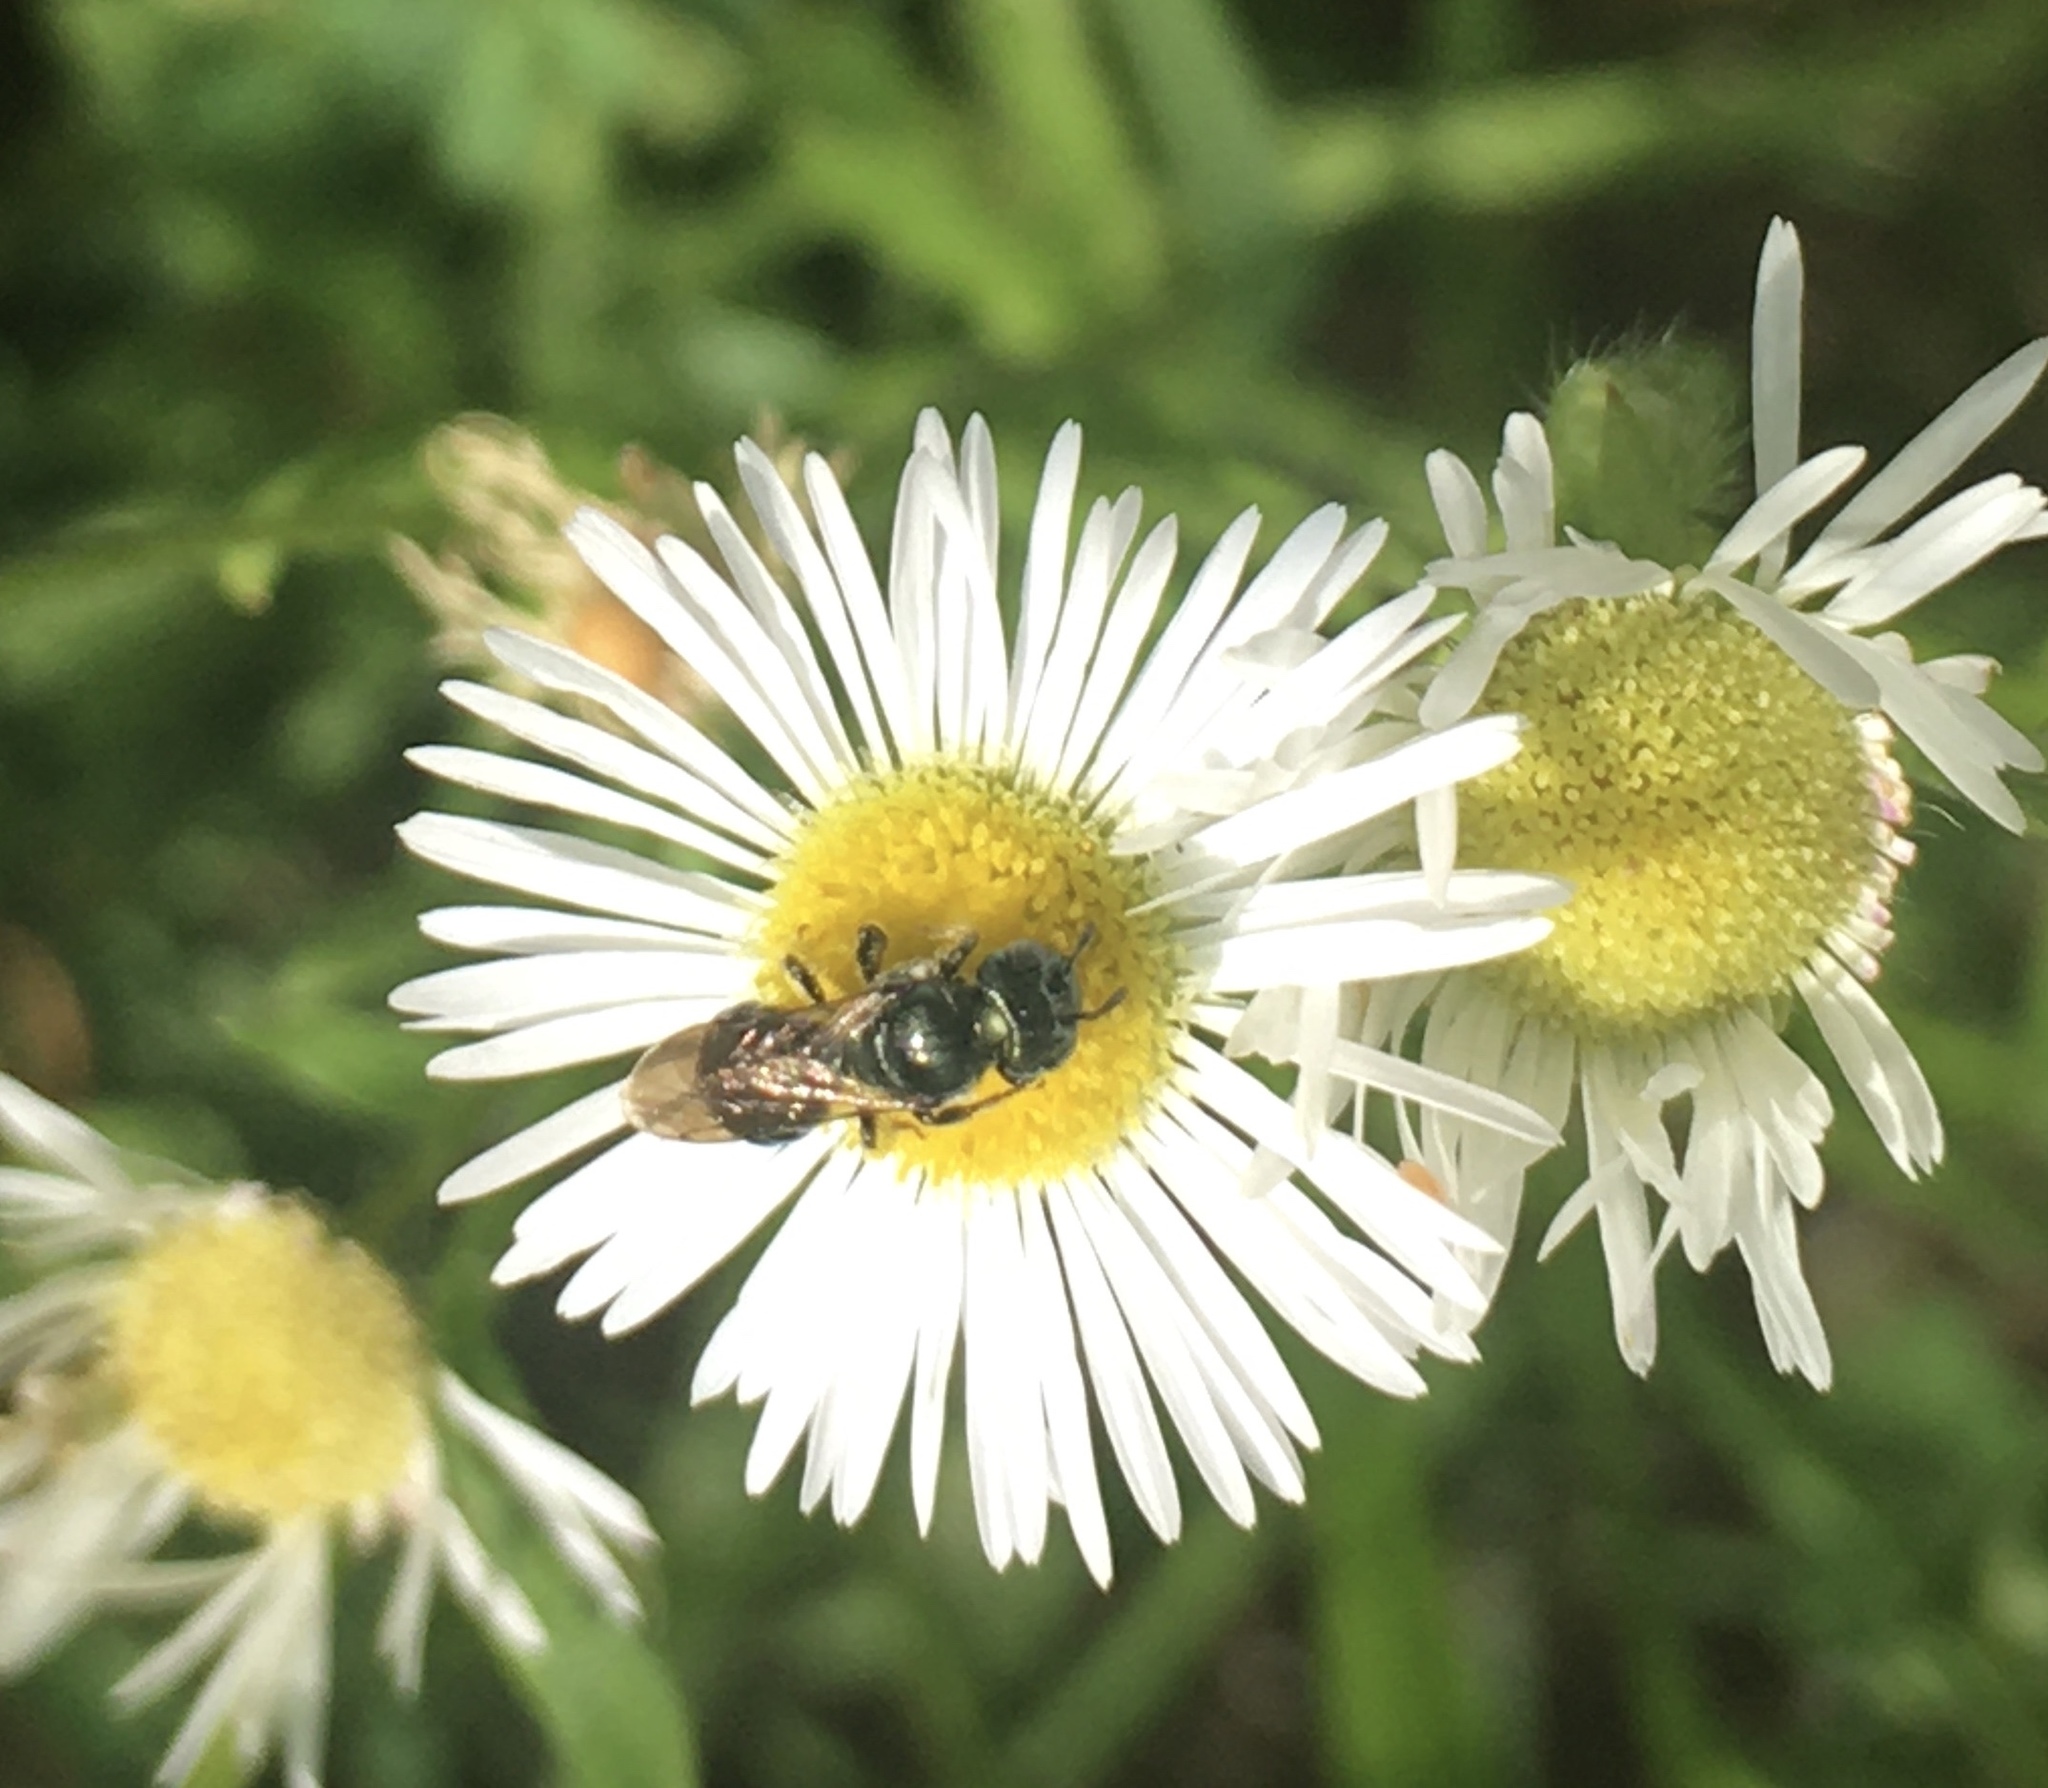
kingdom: Animalia
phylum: Arthropoda
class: Insecta
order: Hymenoptera
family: Apidae
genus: Zadontomerus
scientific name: Zadontomerus
